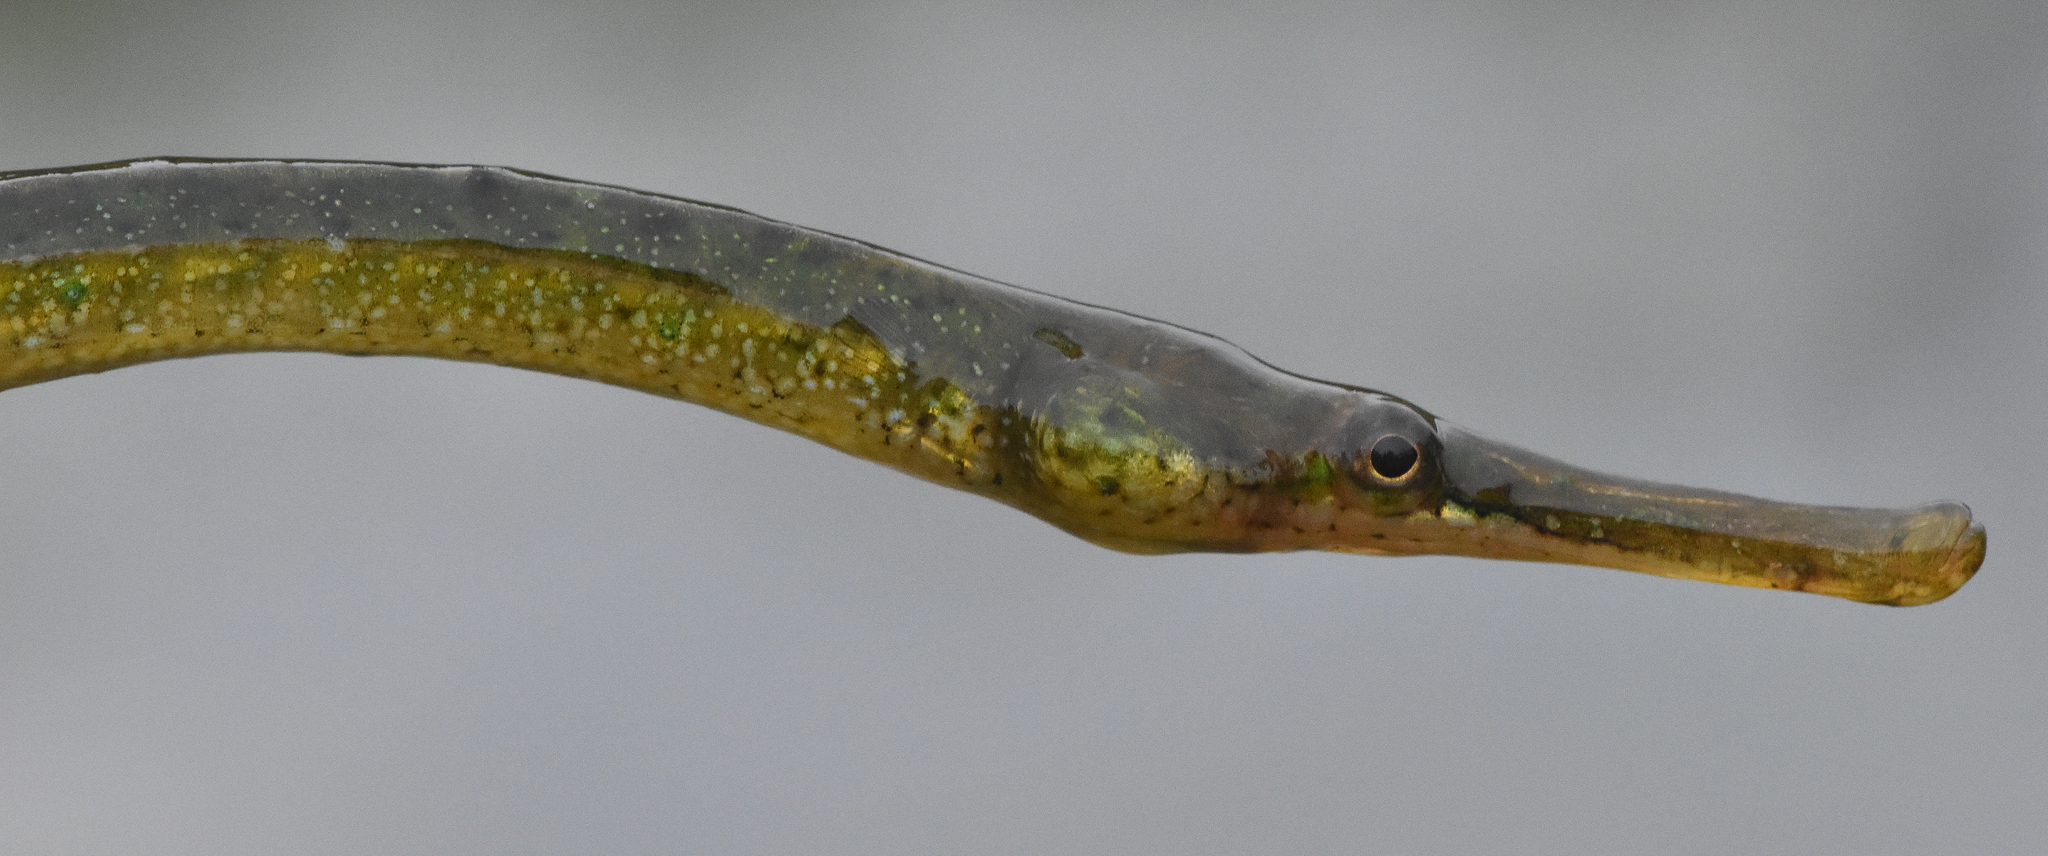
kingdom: Animalia
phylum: Chordata
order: Syngnathiformes
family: Syngnathidae
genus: Syngnathus
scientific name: Syngnathus californiensis
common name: Great pipefish
